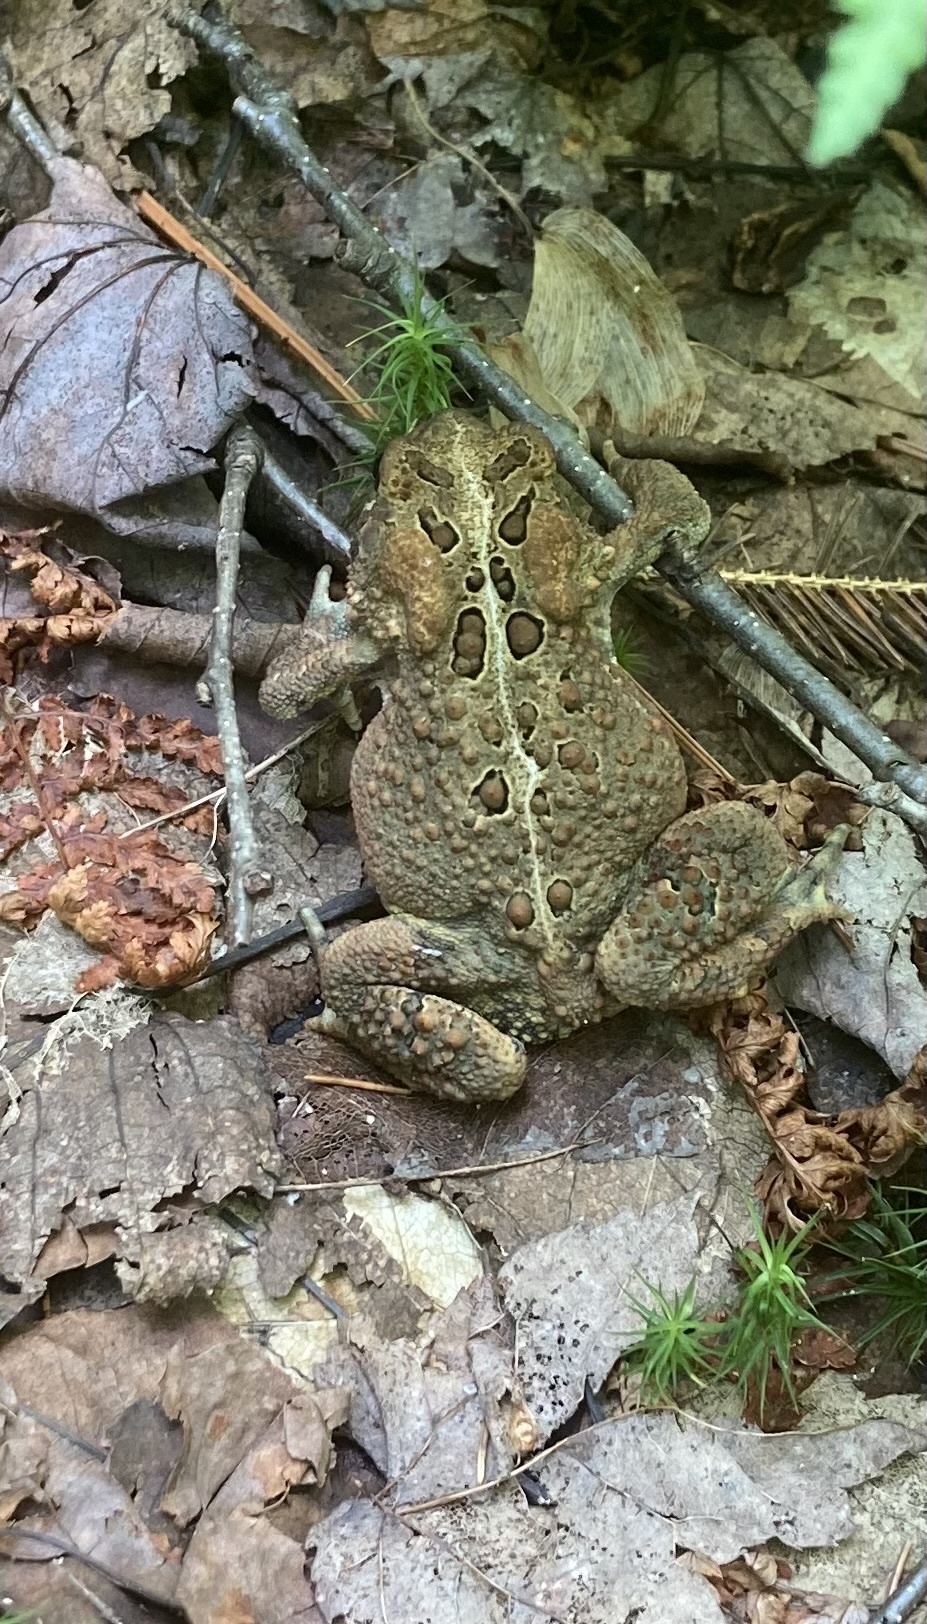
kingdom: Animalia
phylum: Chordata
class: Amphibia
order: Anura
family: Bufonidae
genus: Anaxyrus
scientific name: Anaxyrus americanus
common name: American toad
